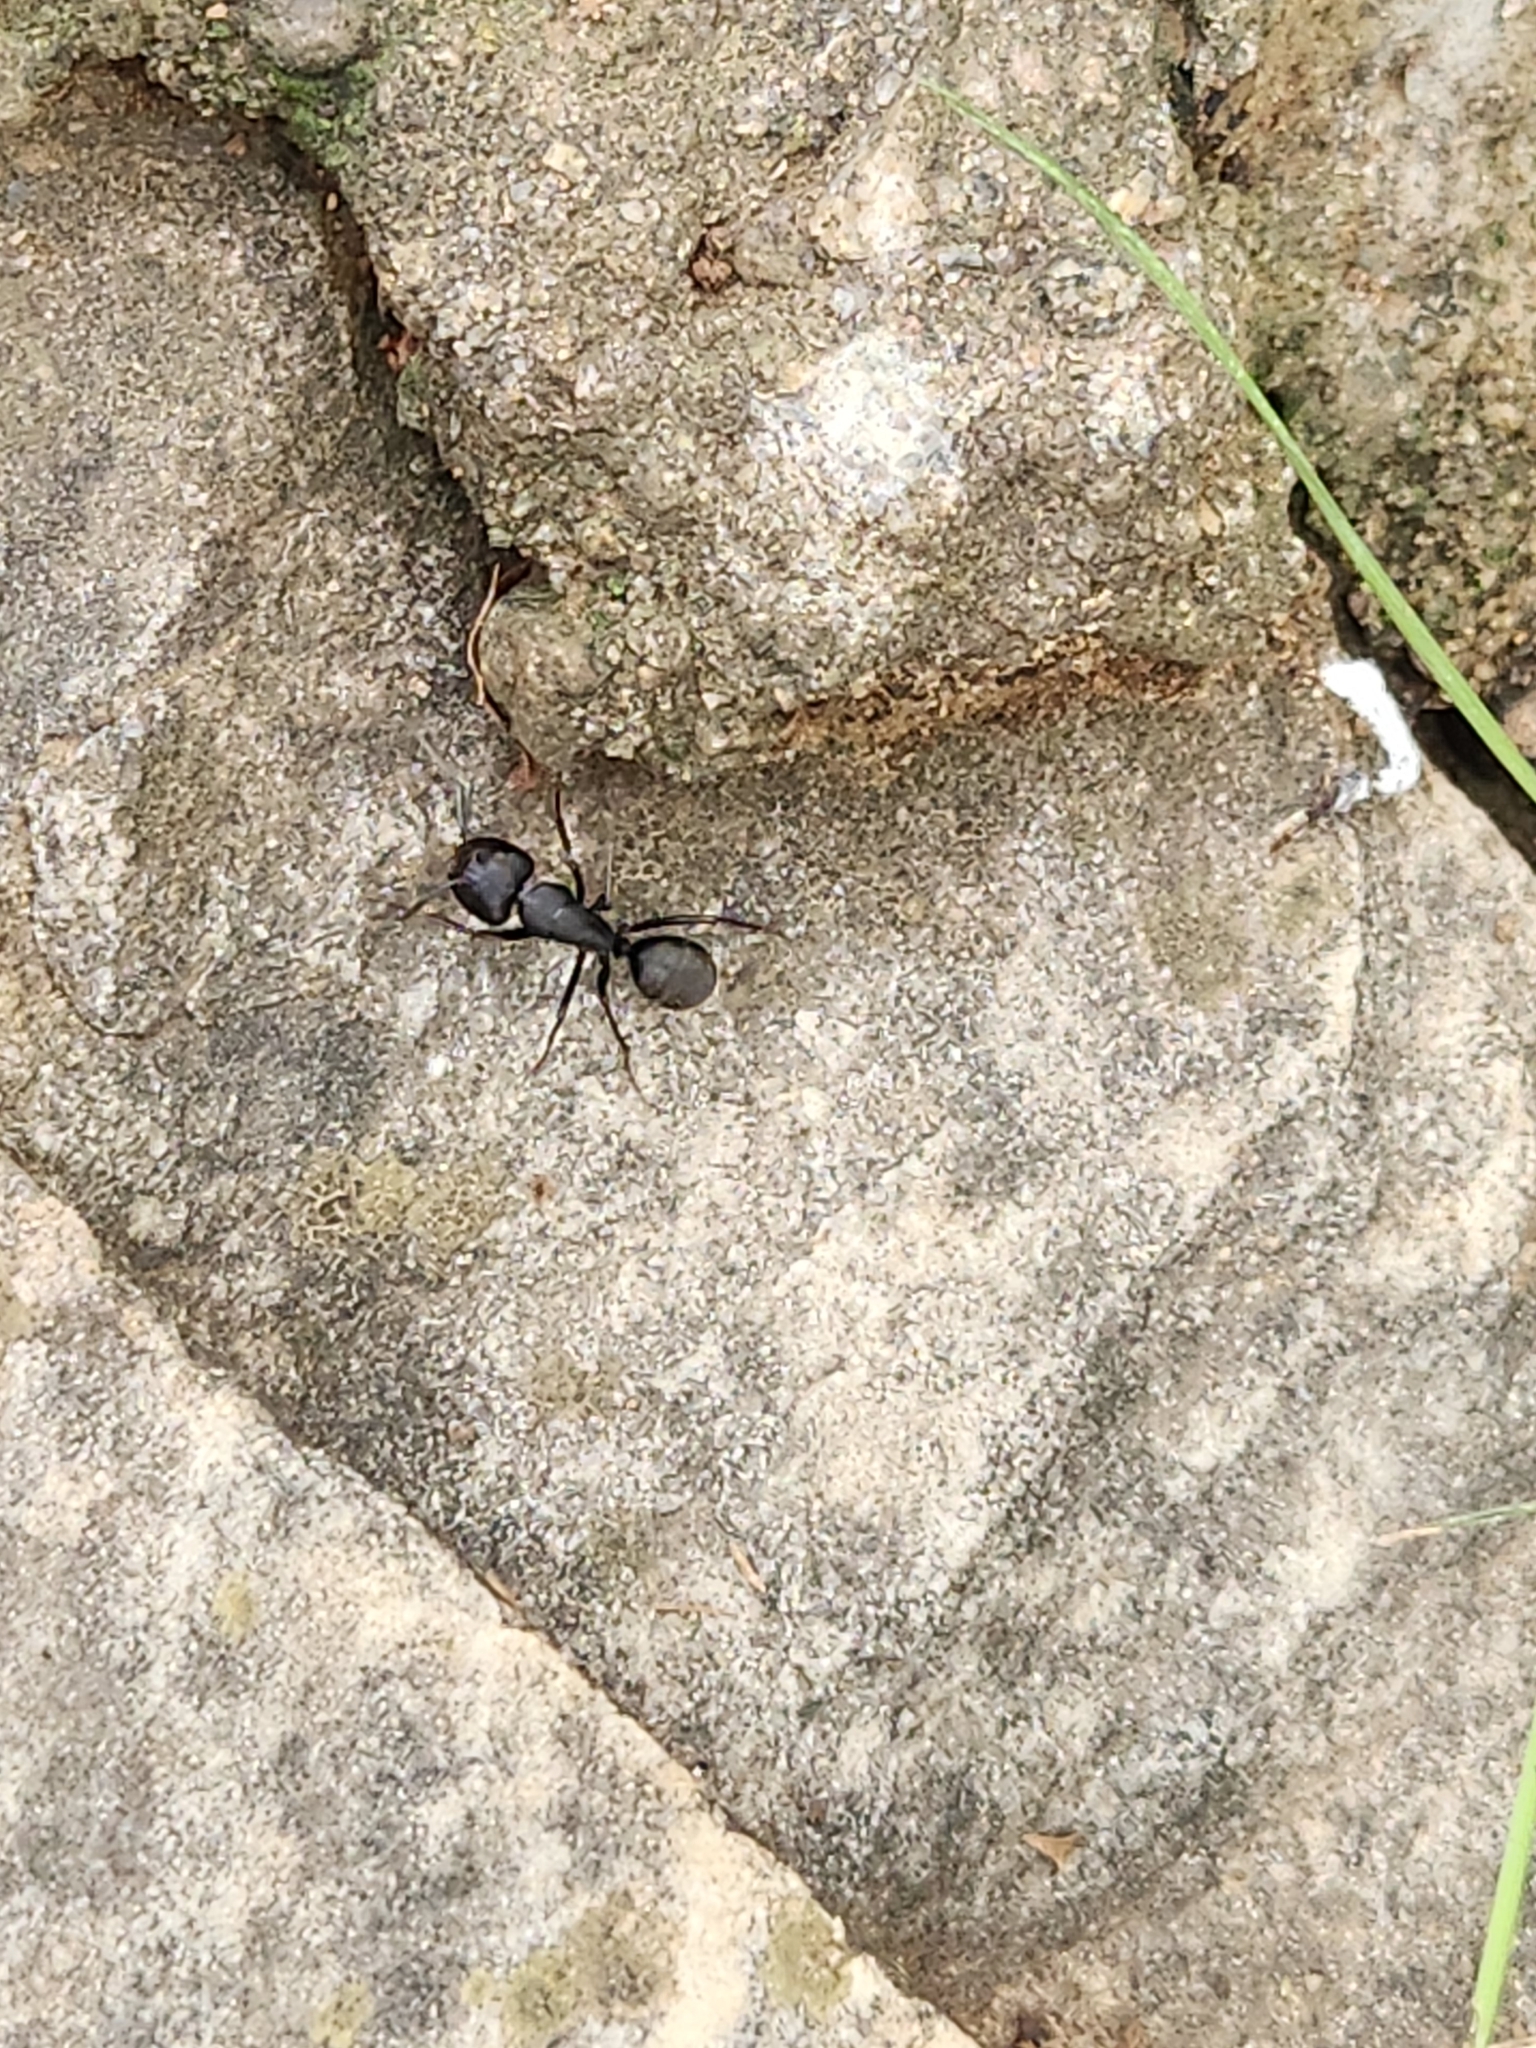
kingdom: Animalia
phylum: Arthropoda
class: Insecta
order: Hymenoptera
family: Formicidae
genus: Camponotus
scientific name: Camponotus japonicus
